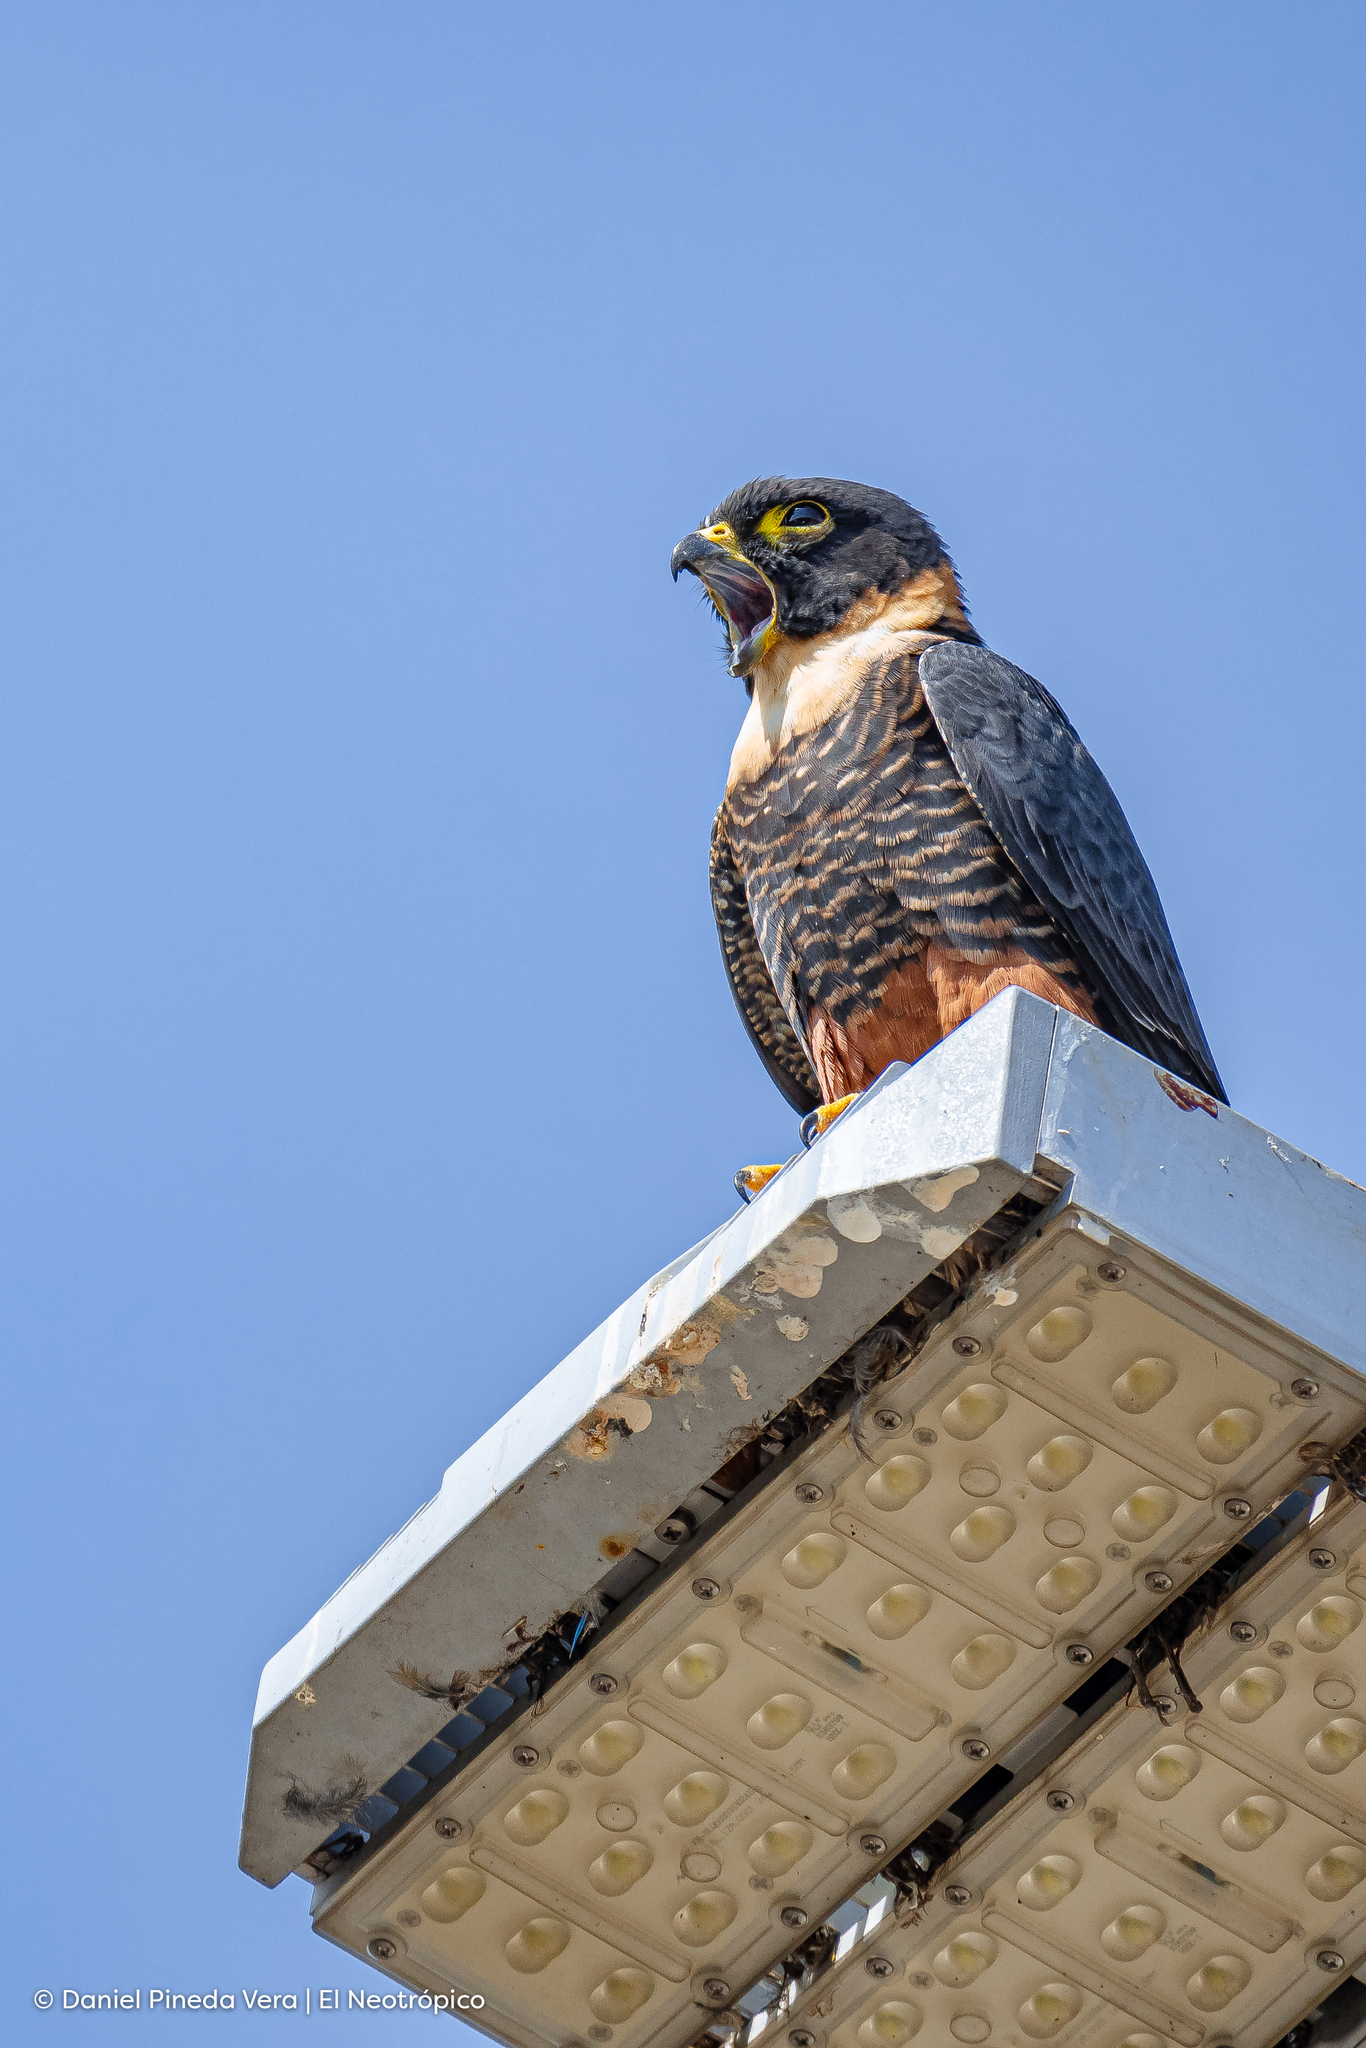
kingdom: Animalia
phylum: Chordata
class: Aves
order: Falconiformes
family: Falconidae
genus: Falco
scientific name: Falco rufigularis
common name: Bat falcon
